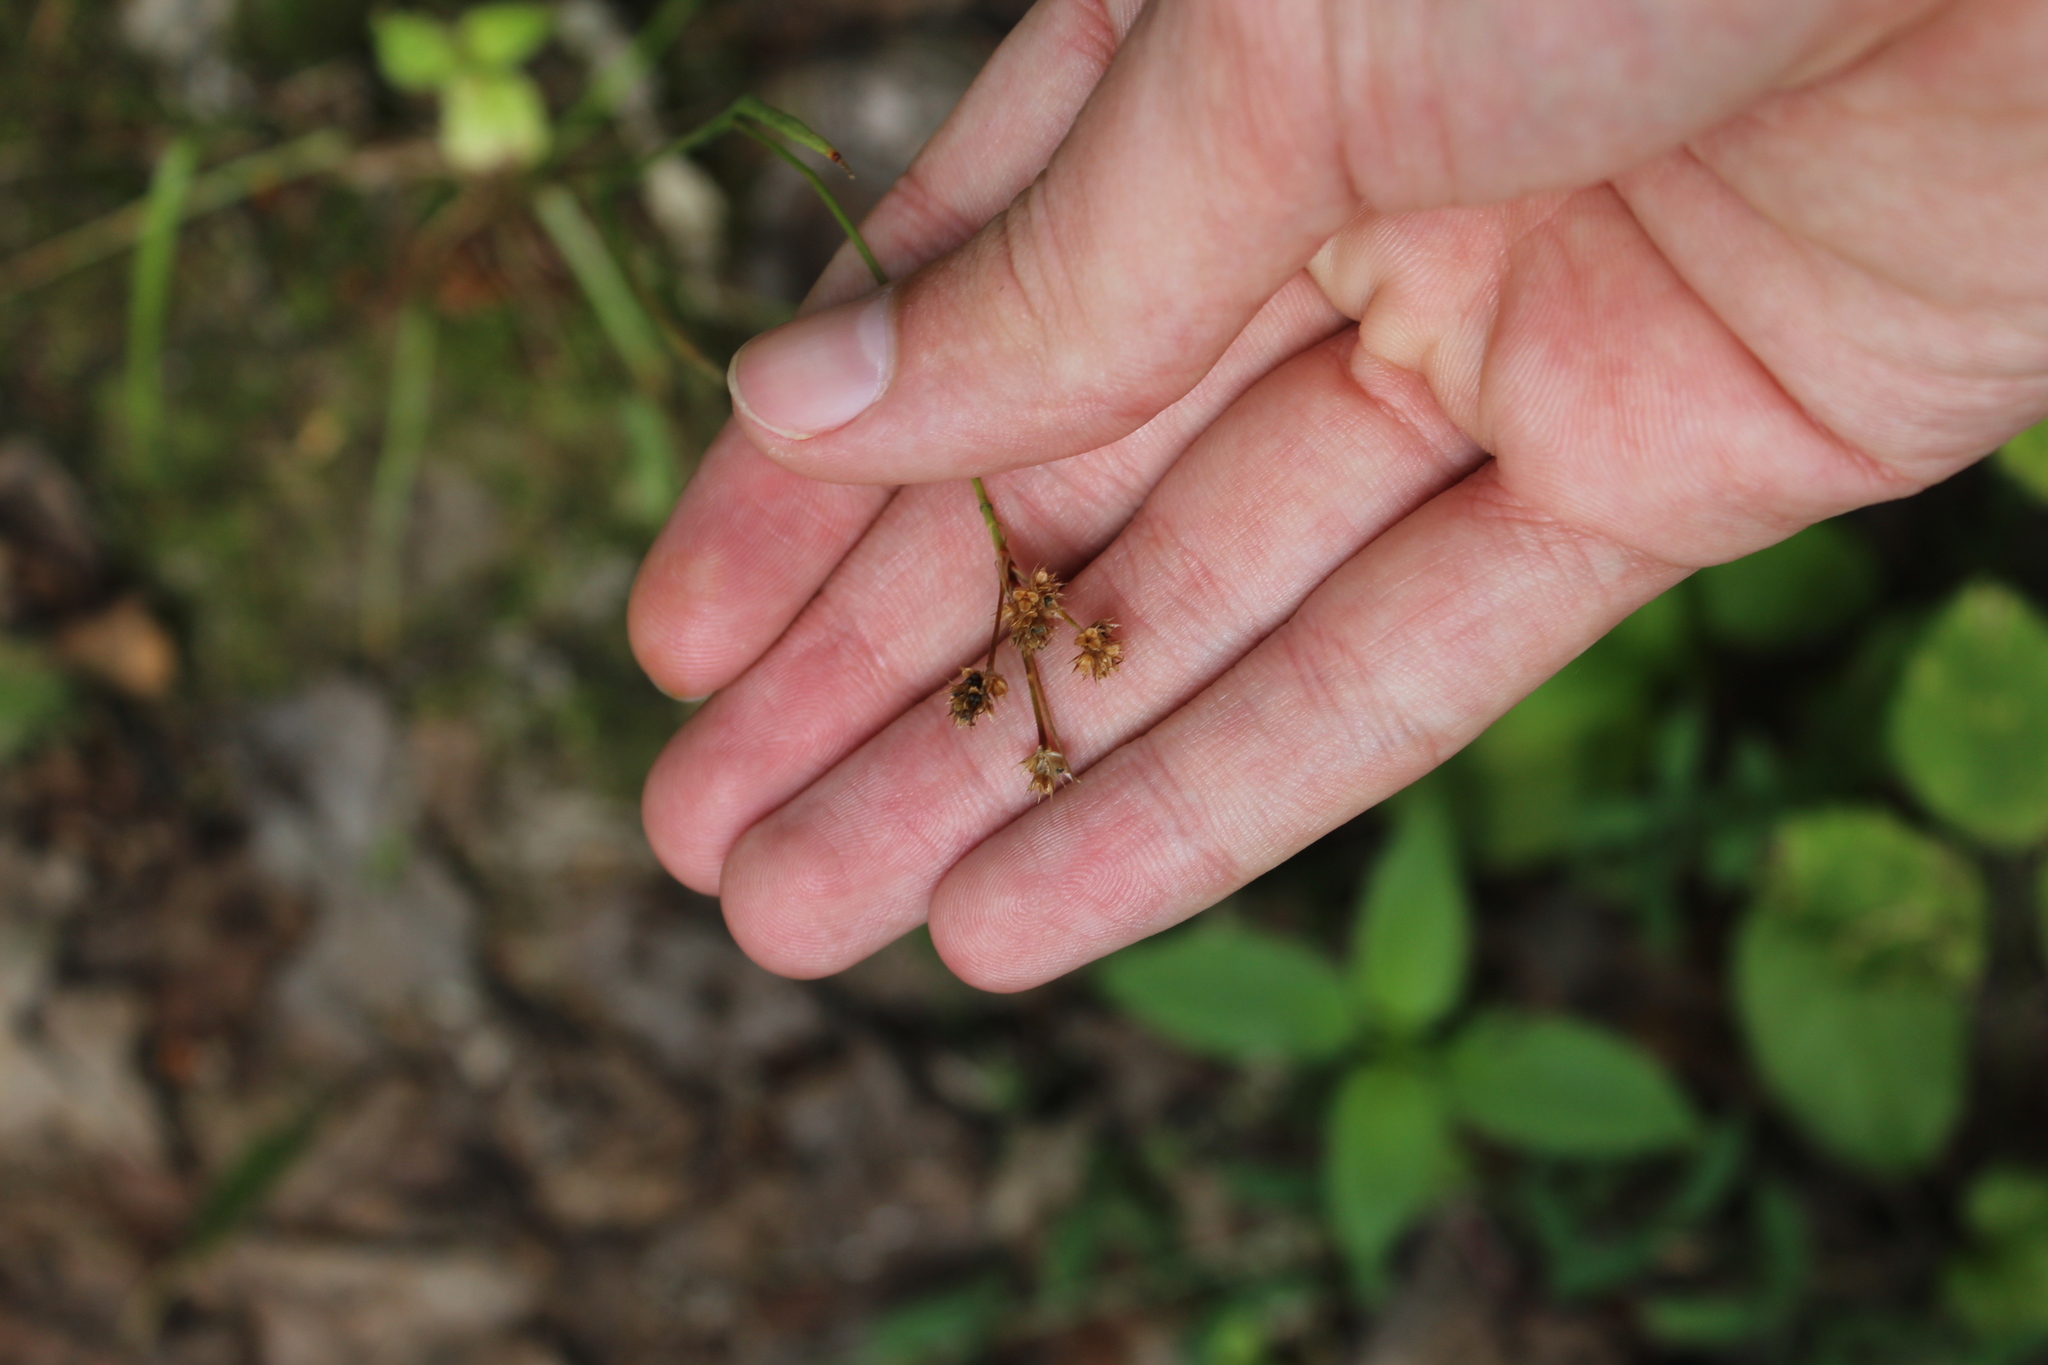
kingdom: Plantae
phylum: Tracheophyta
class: Liliopsida
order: Poales
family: Juncaceae
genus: Luzula
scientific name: Luzula pallescens
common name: Fen wood-rush
